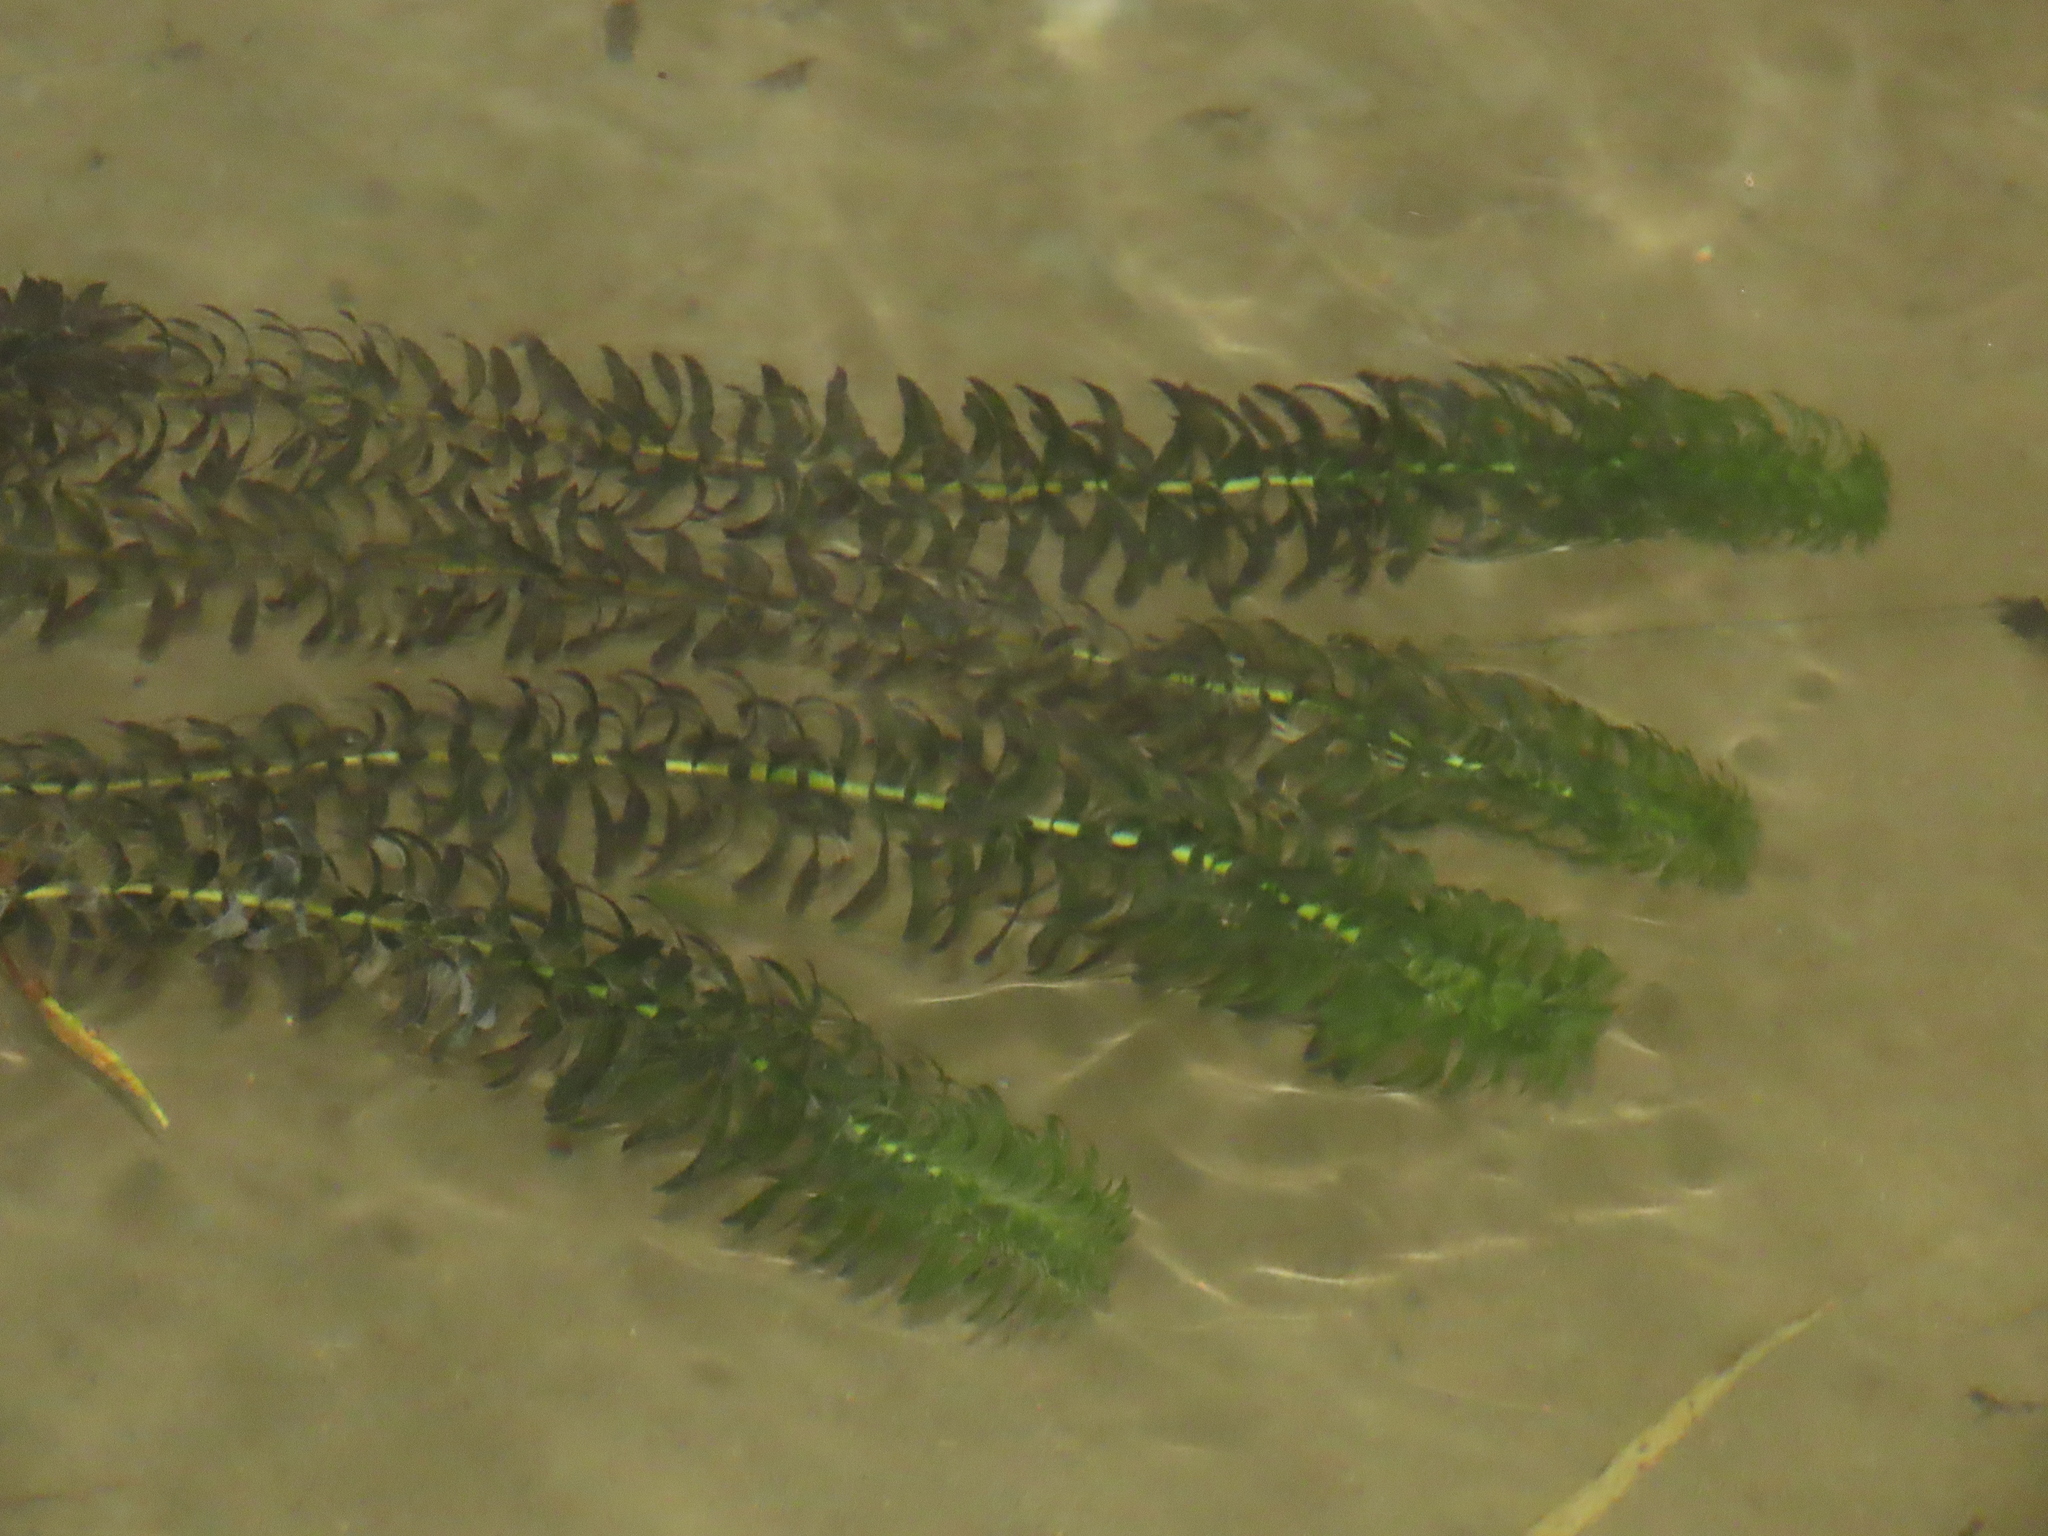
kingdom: Plantae
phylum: Tracheophyta
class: Liliopsida
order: Alismatales
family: Hydrocharitaceae
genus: Elodea
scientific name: Elodea densa
